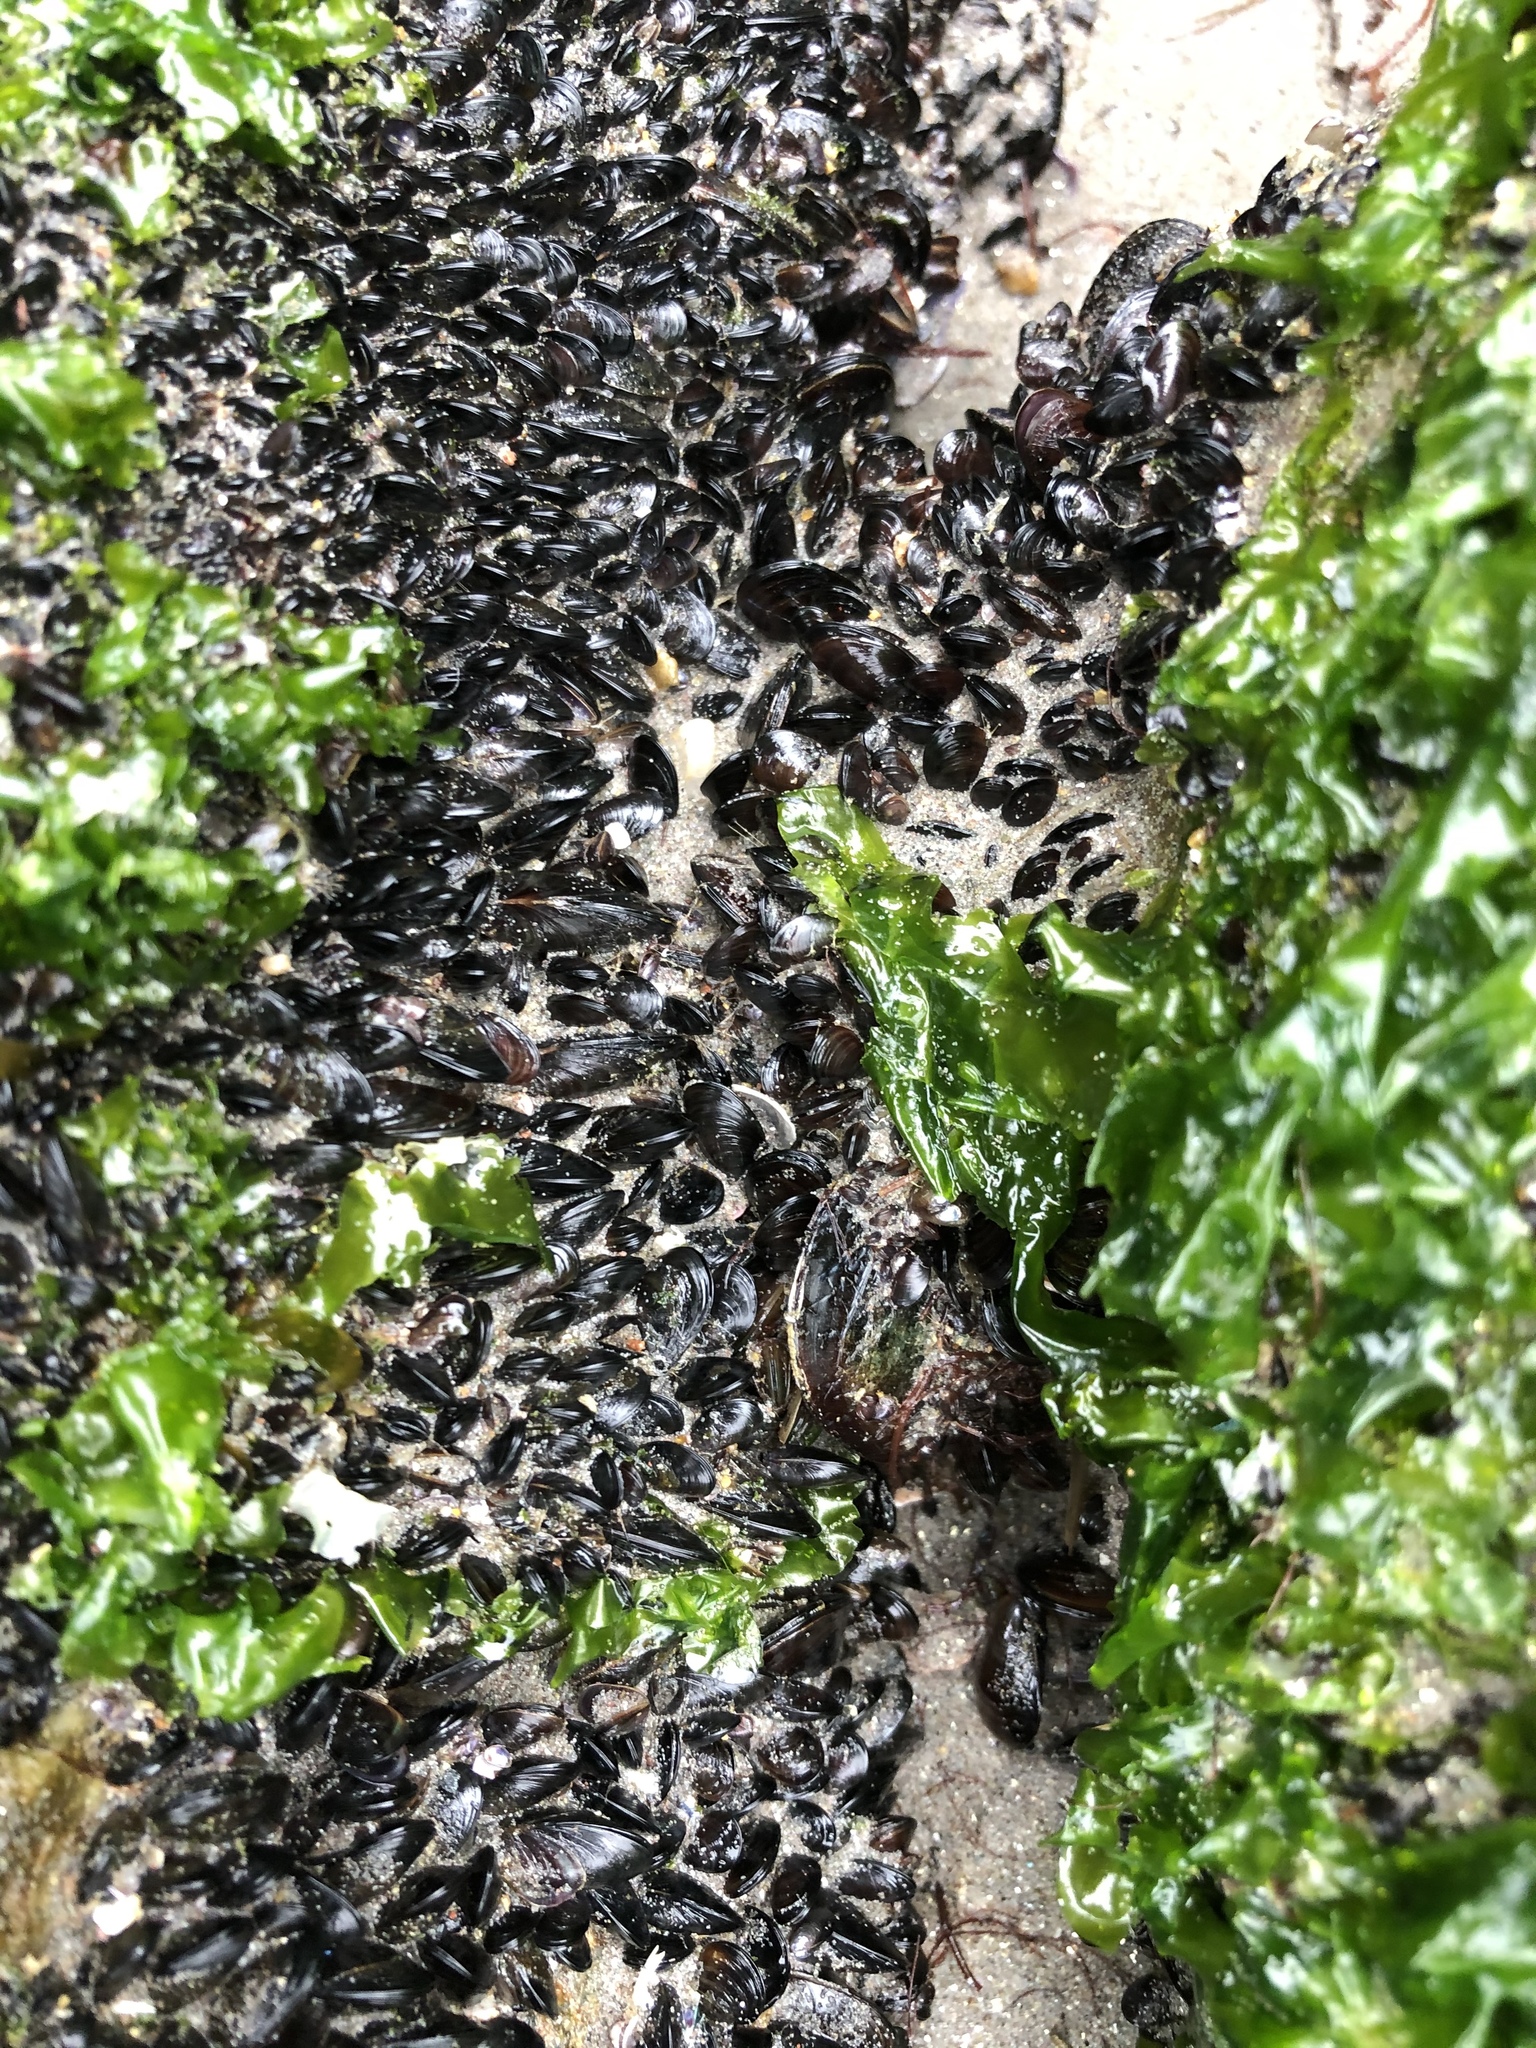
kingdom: Animalia
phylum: Mollusca
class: Bivalvia
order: Mytilida
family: Mytilidae
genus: Semimytilus
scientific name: Semimytilus patagonicus
